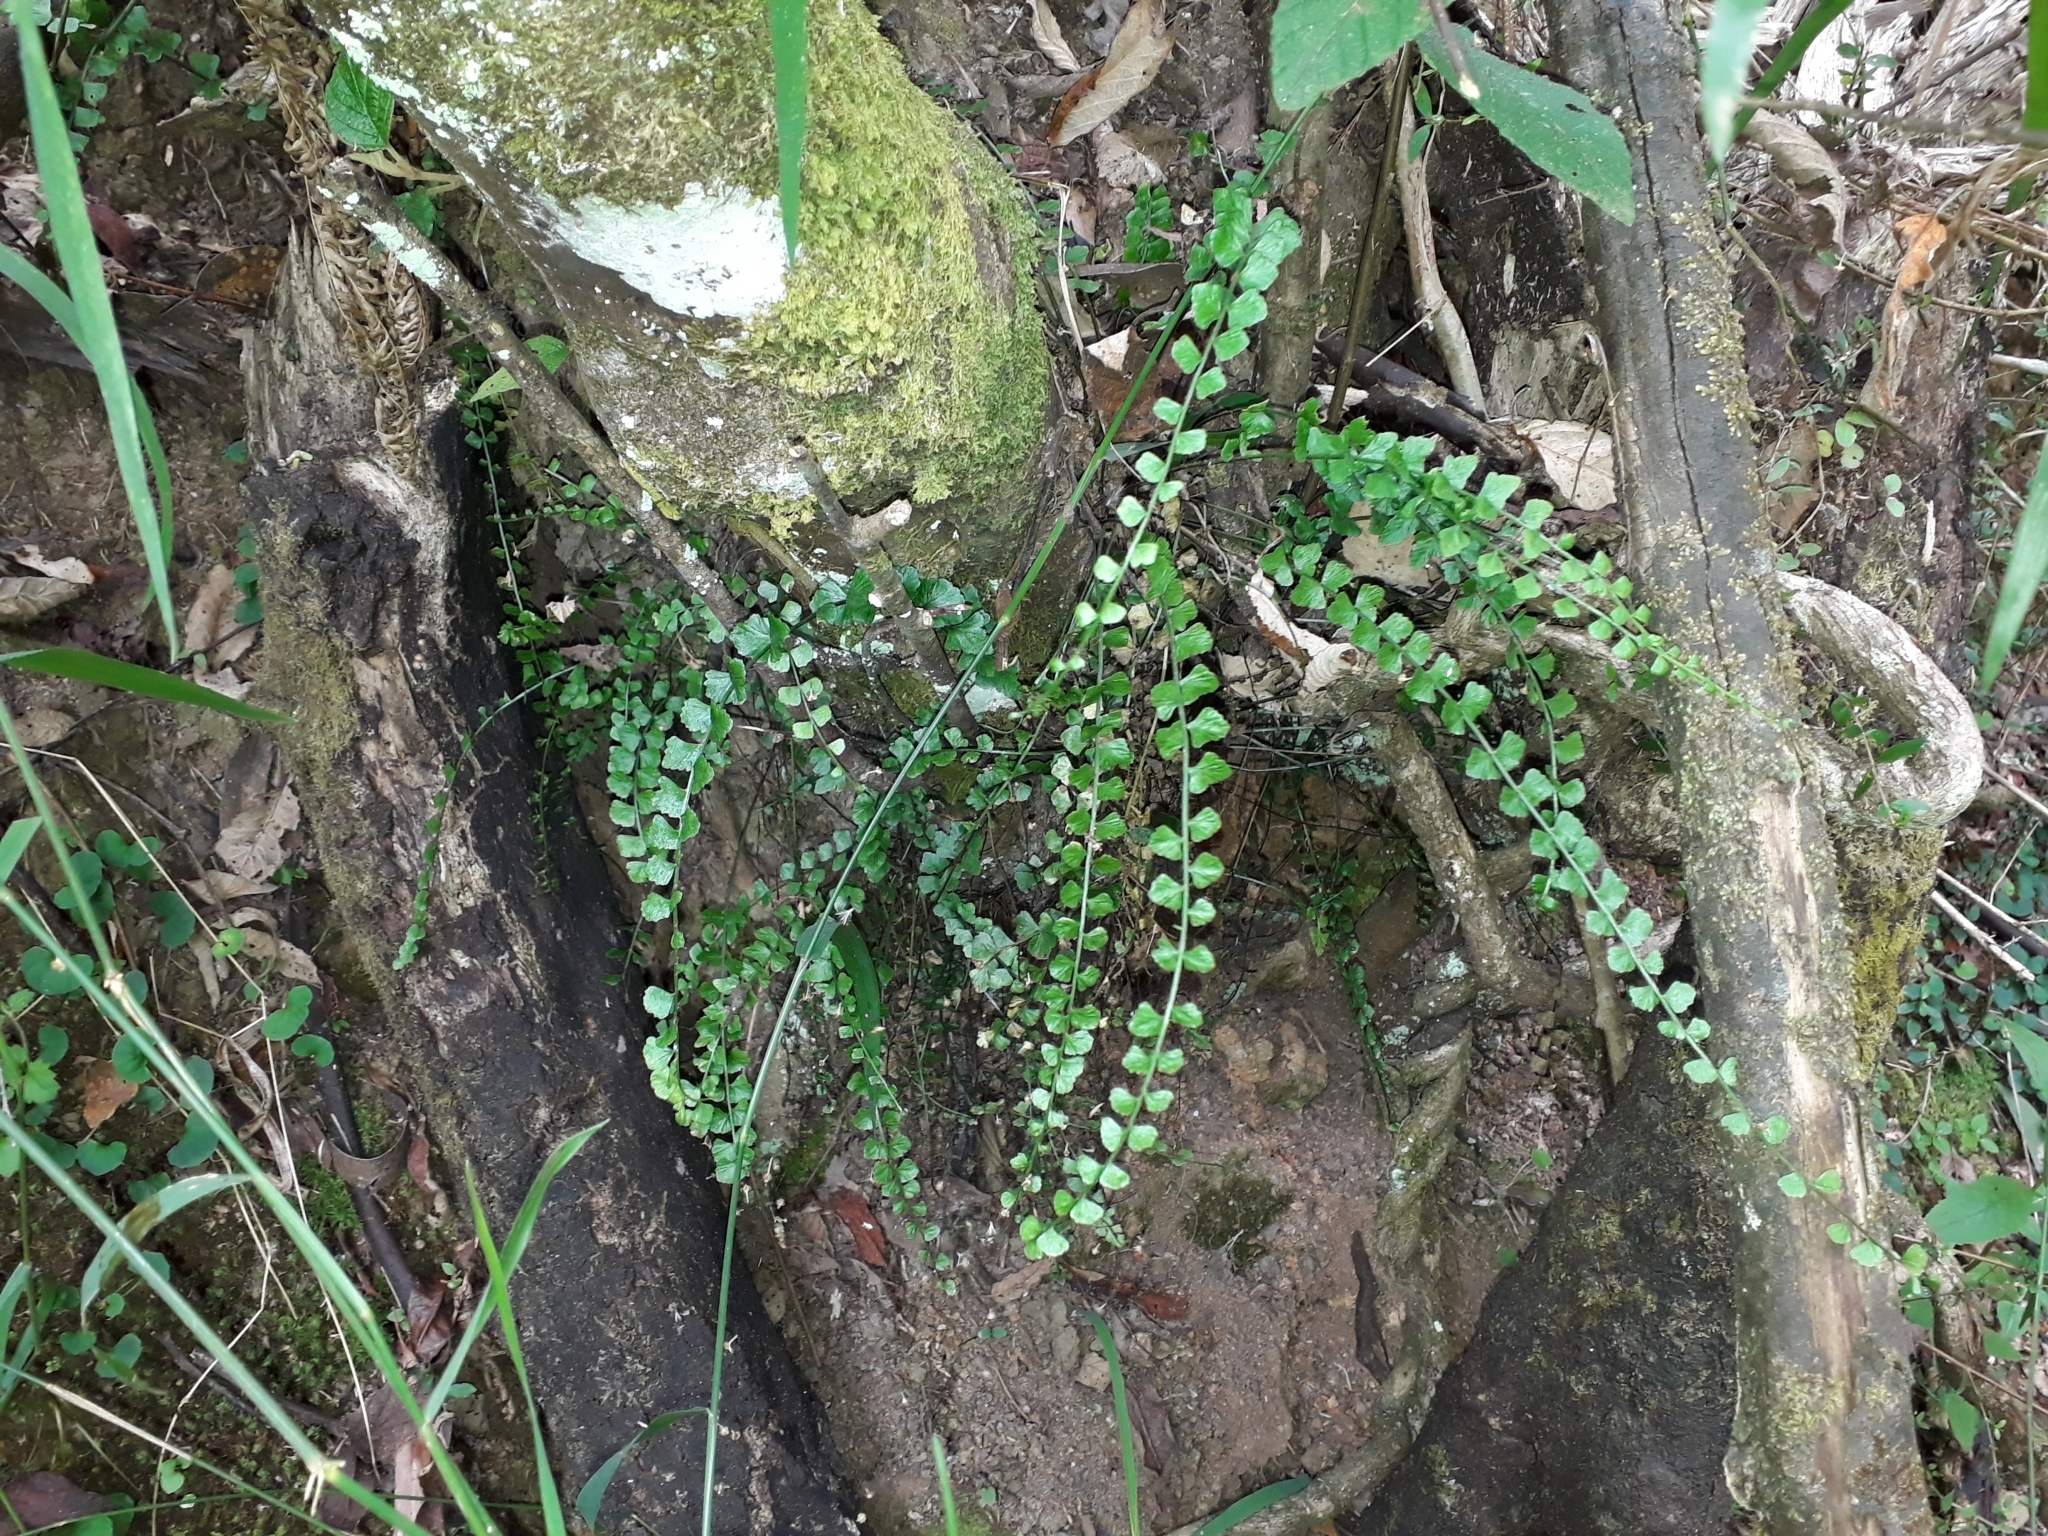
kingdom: Plantae
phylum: Tracheophyta
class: Polypodiopsida
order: Polypodiales
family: Aspleniaceae
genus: Asplenium
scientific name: Asplenium flabellifolium
